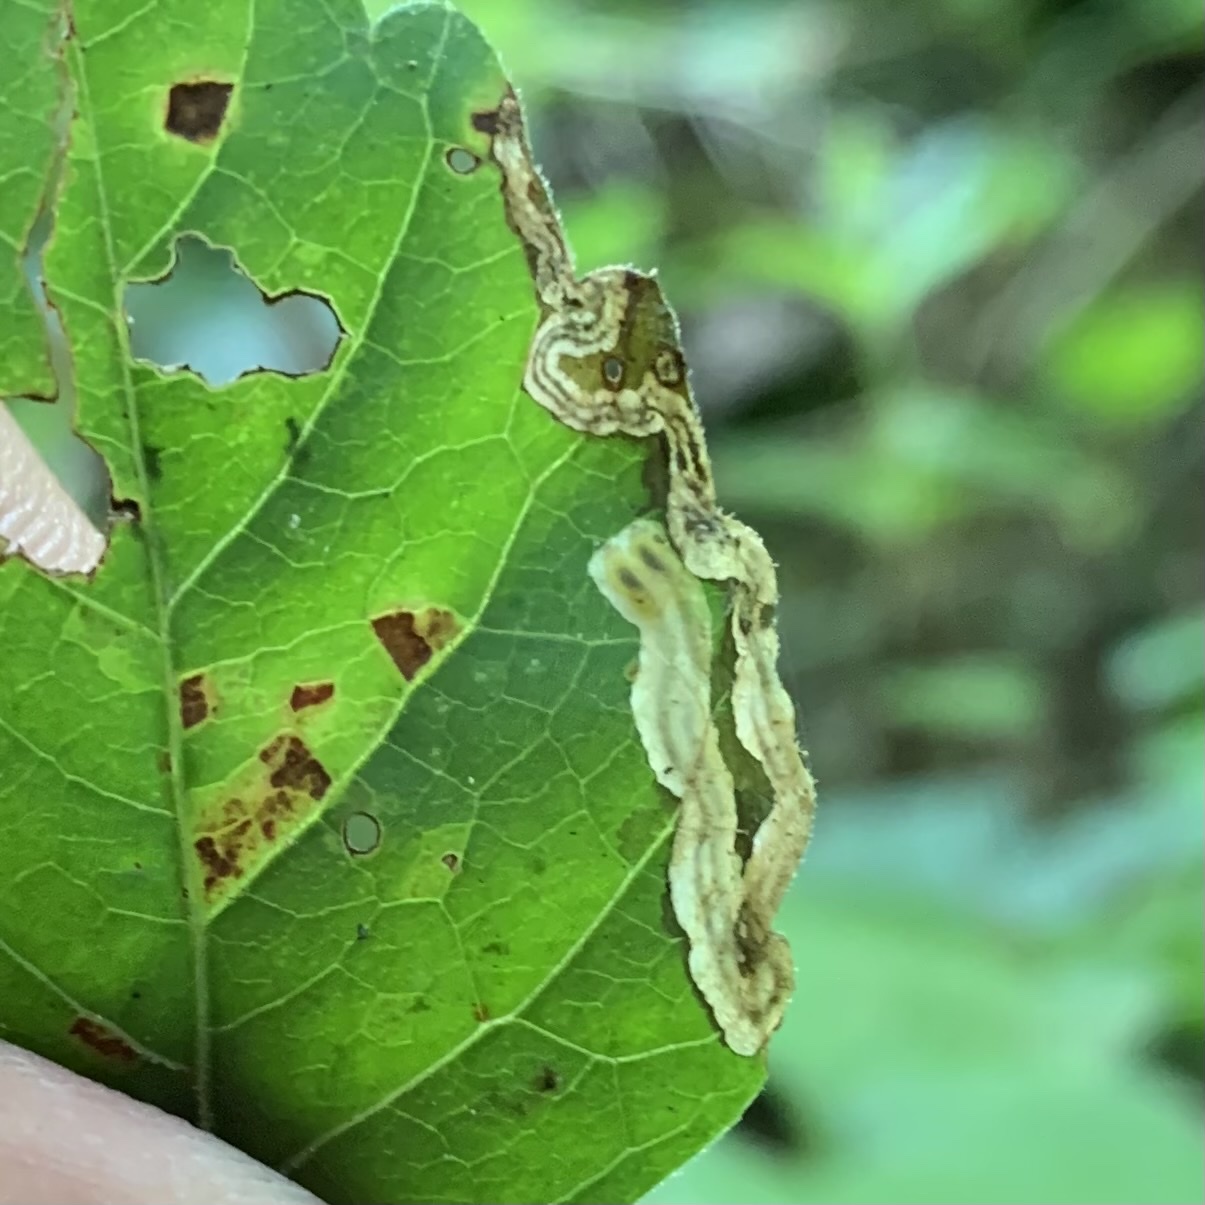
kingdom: Animalia
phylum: Arthropoda
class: Insecta
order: Coleoptera
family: Curculionidae
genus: Orchestomerus
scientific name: Orchestomerus eisemani
